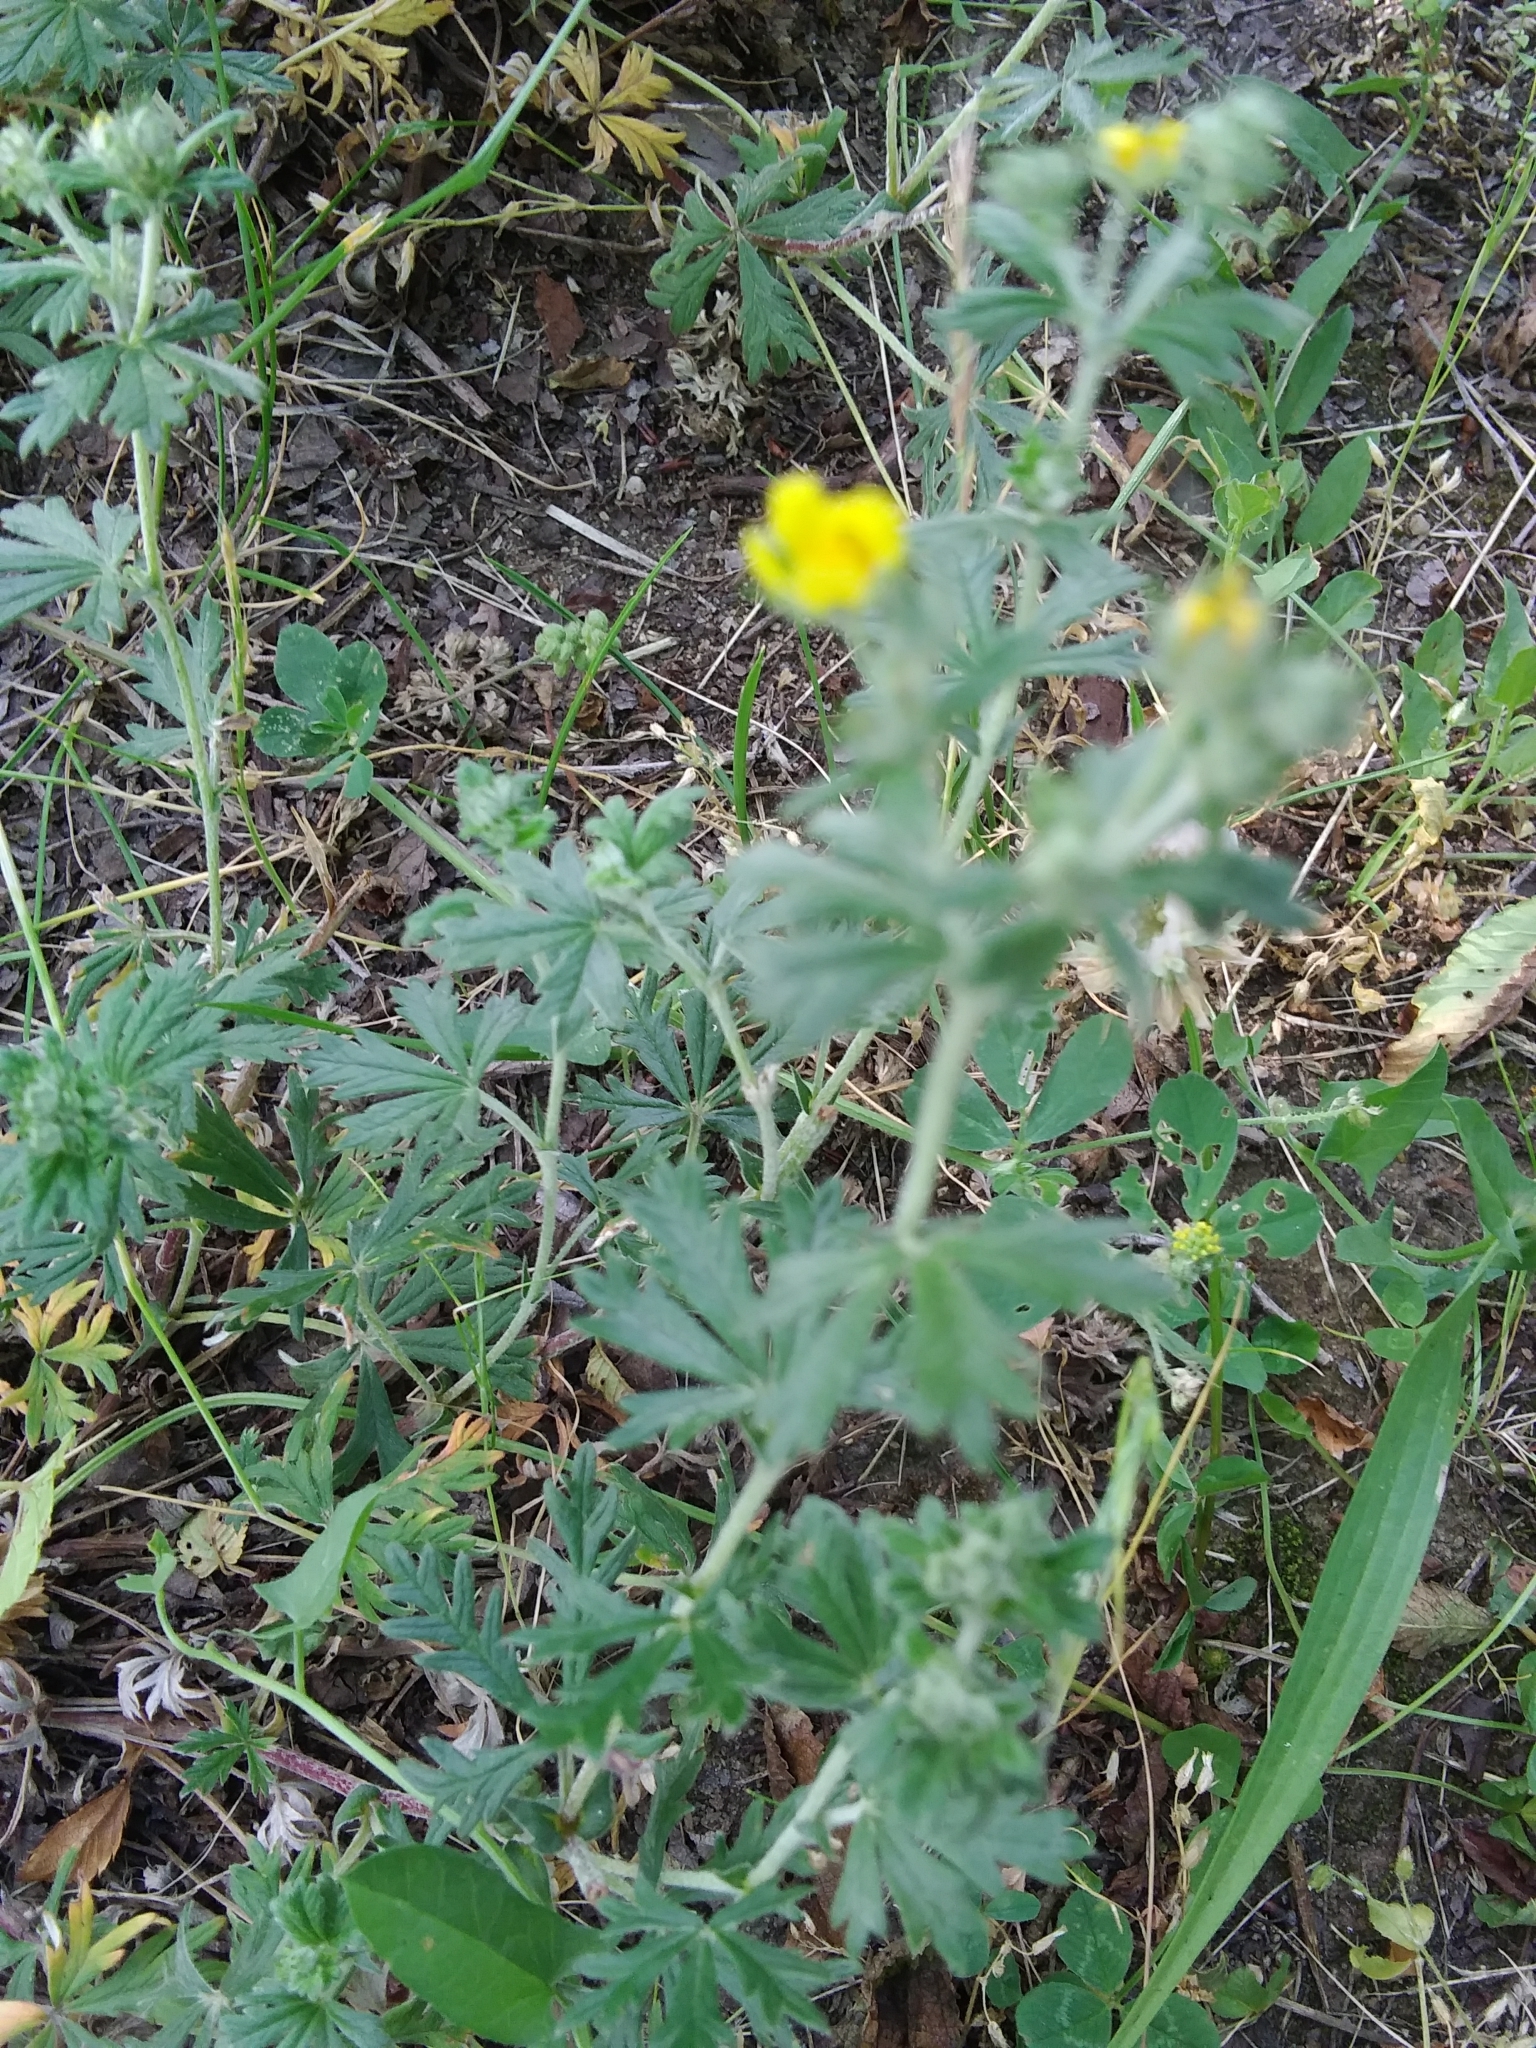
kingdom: Plantae
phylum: Tracheophyta
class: Magnoliopsida
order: Rosales
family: Rosaceae
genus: Potentilla
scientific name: Potentilla argentea
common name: Hoary cinquefoil
